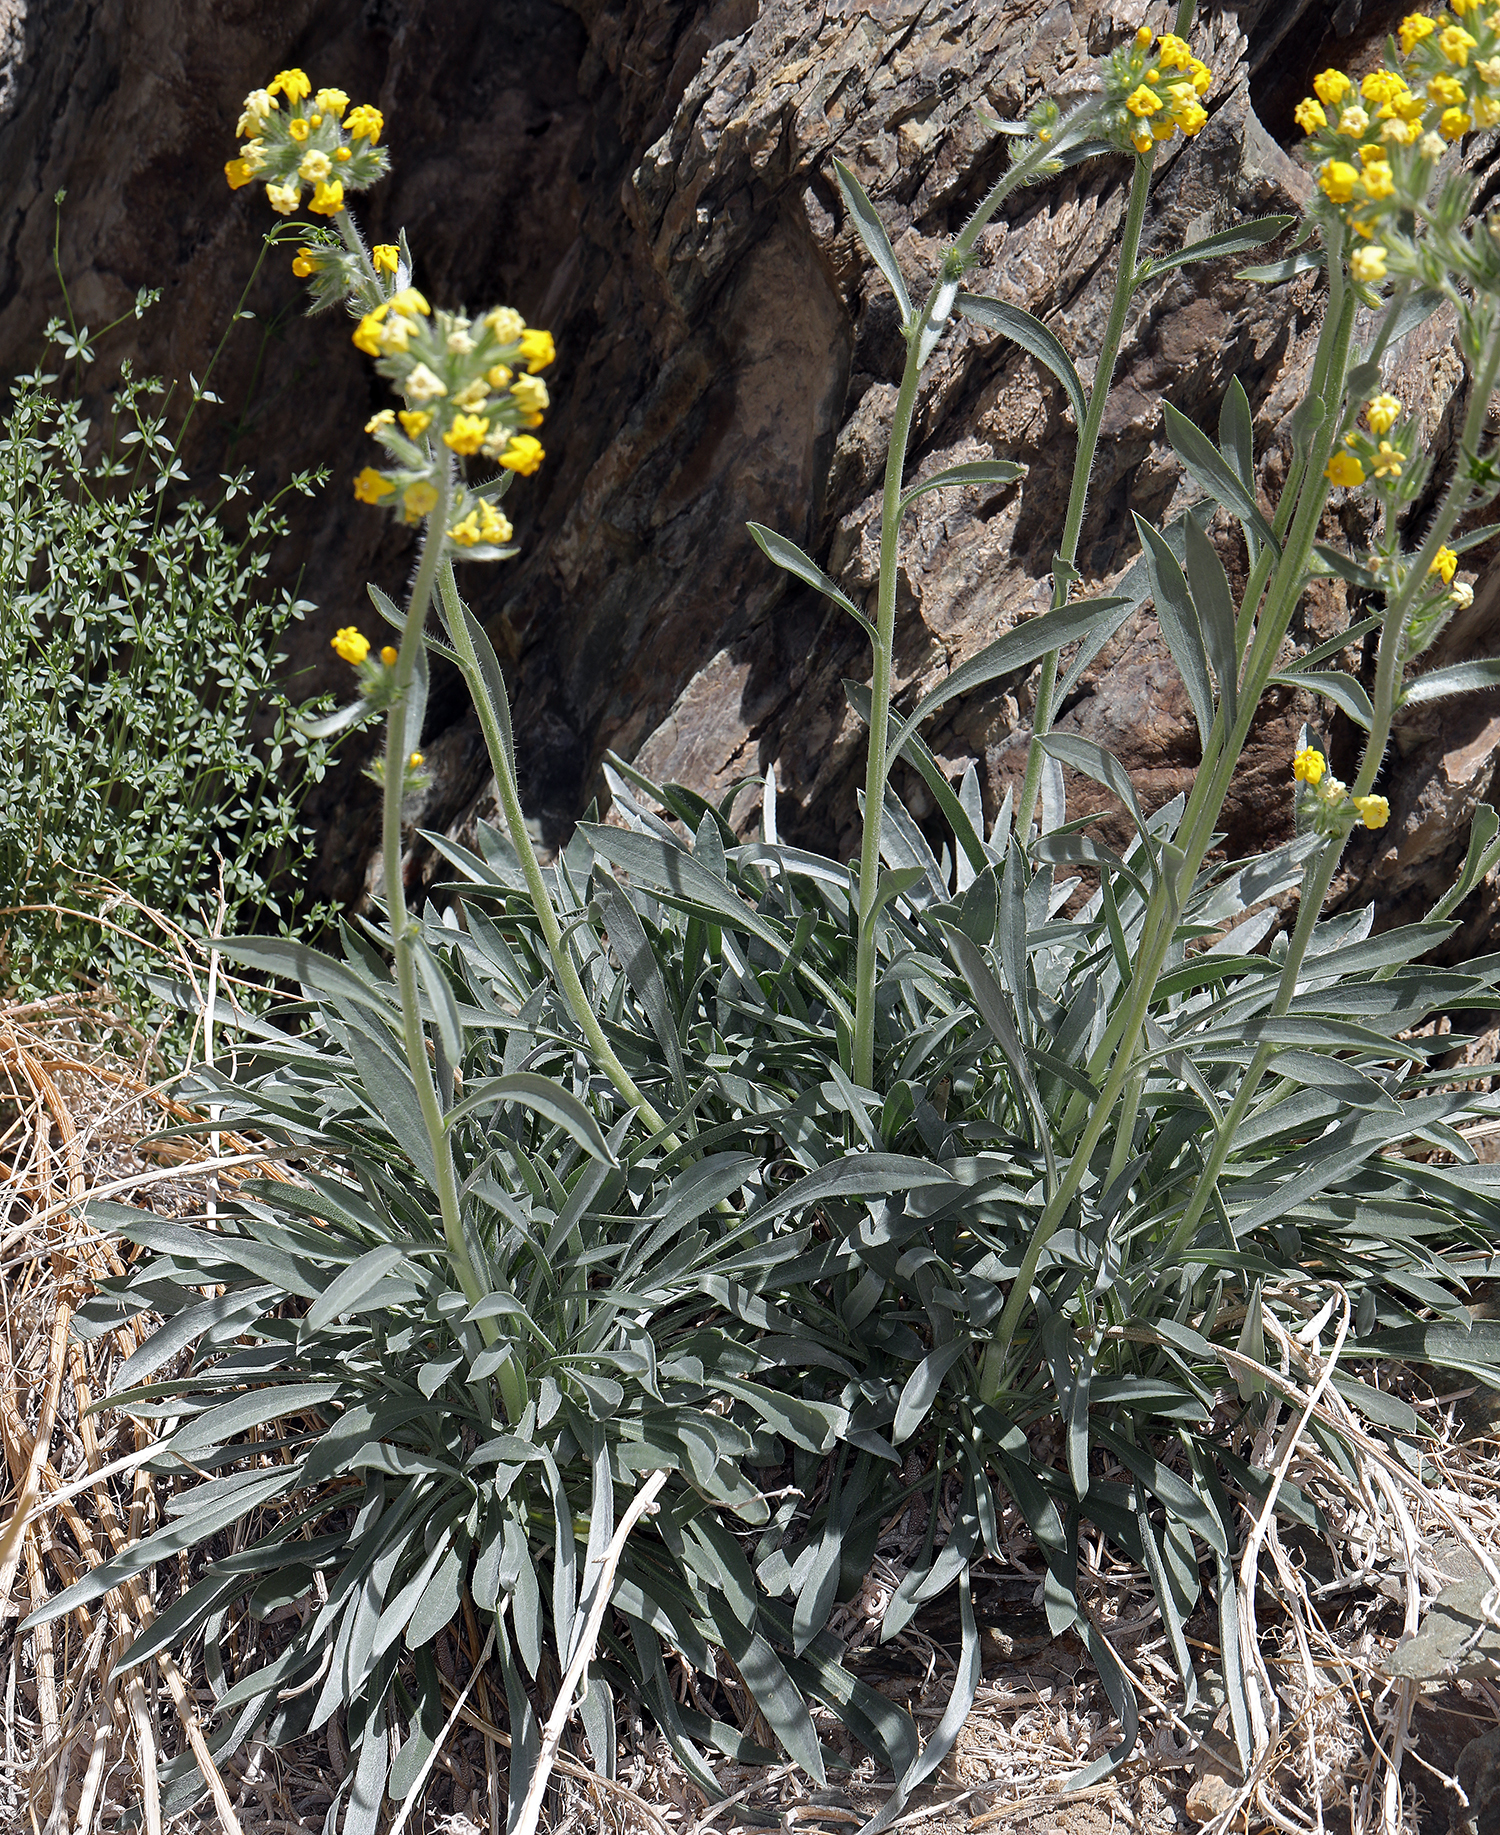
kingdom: Plantae
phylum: Tracheophyta
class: Magnoliopsida
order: Boraginales
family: Boraginaceae
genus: Oreocarya
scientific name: Oreocarya confertiflora
